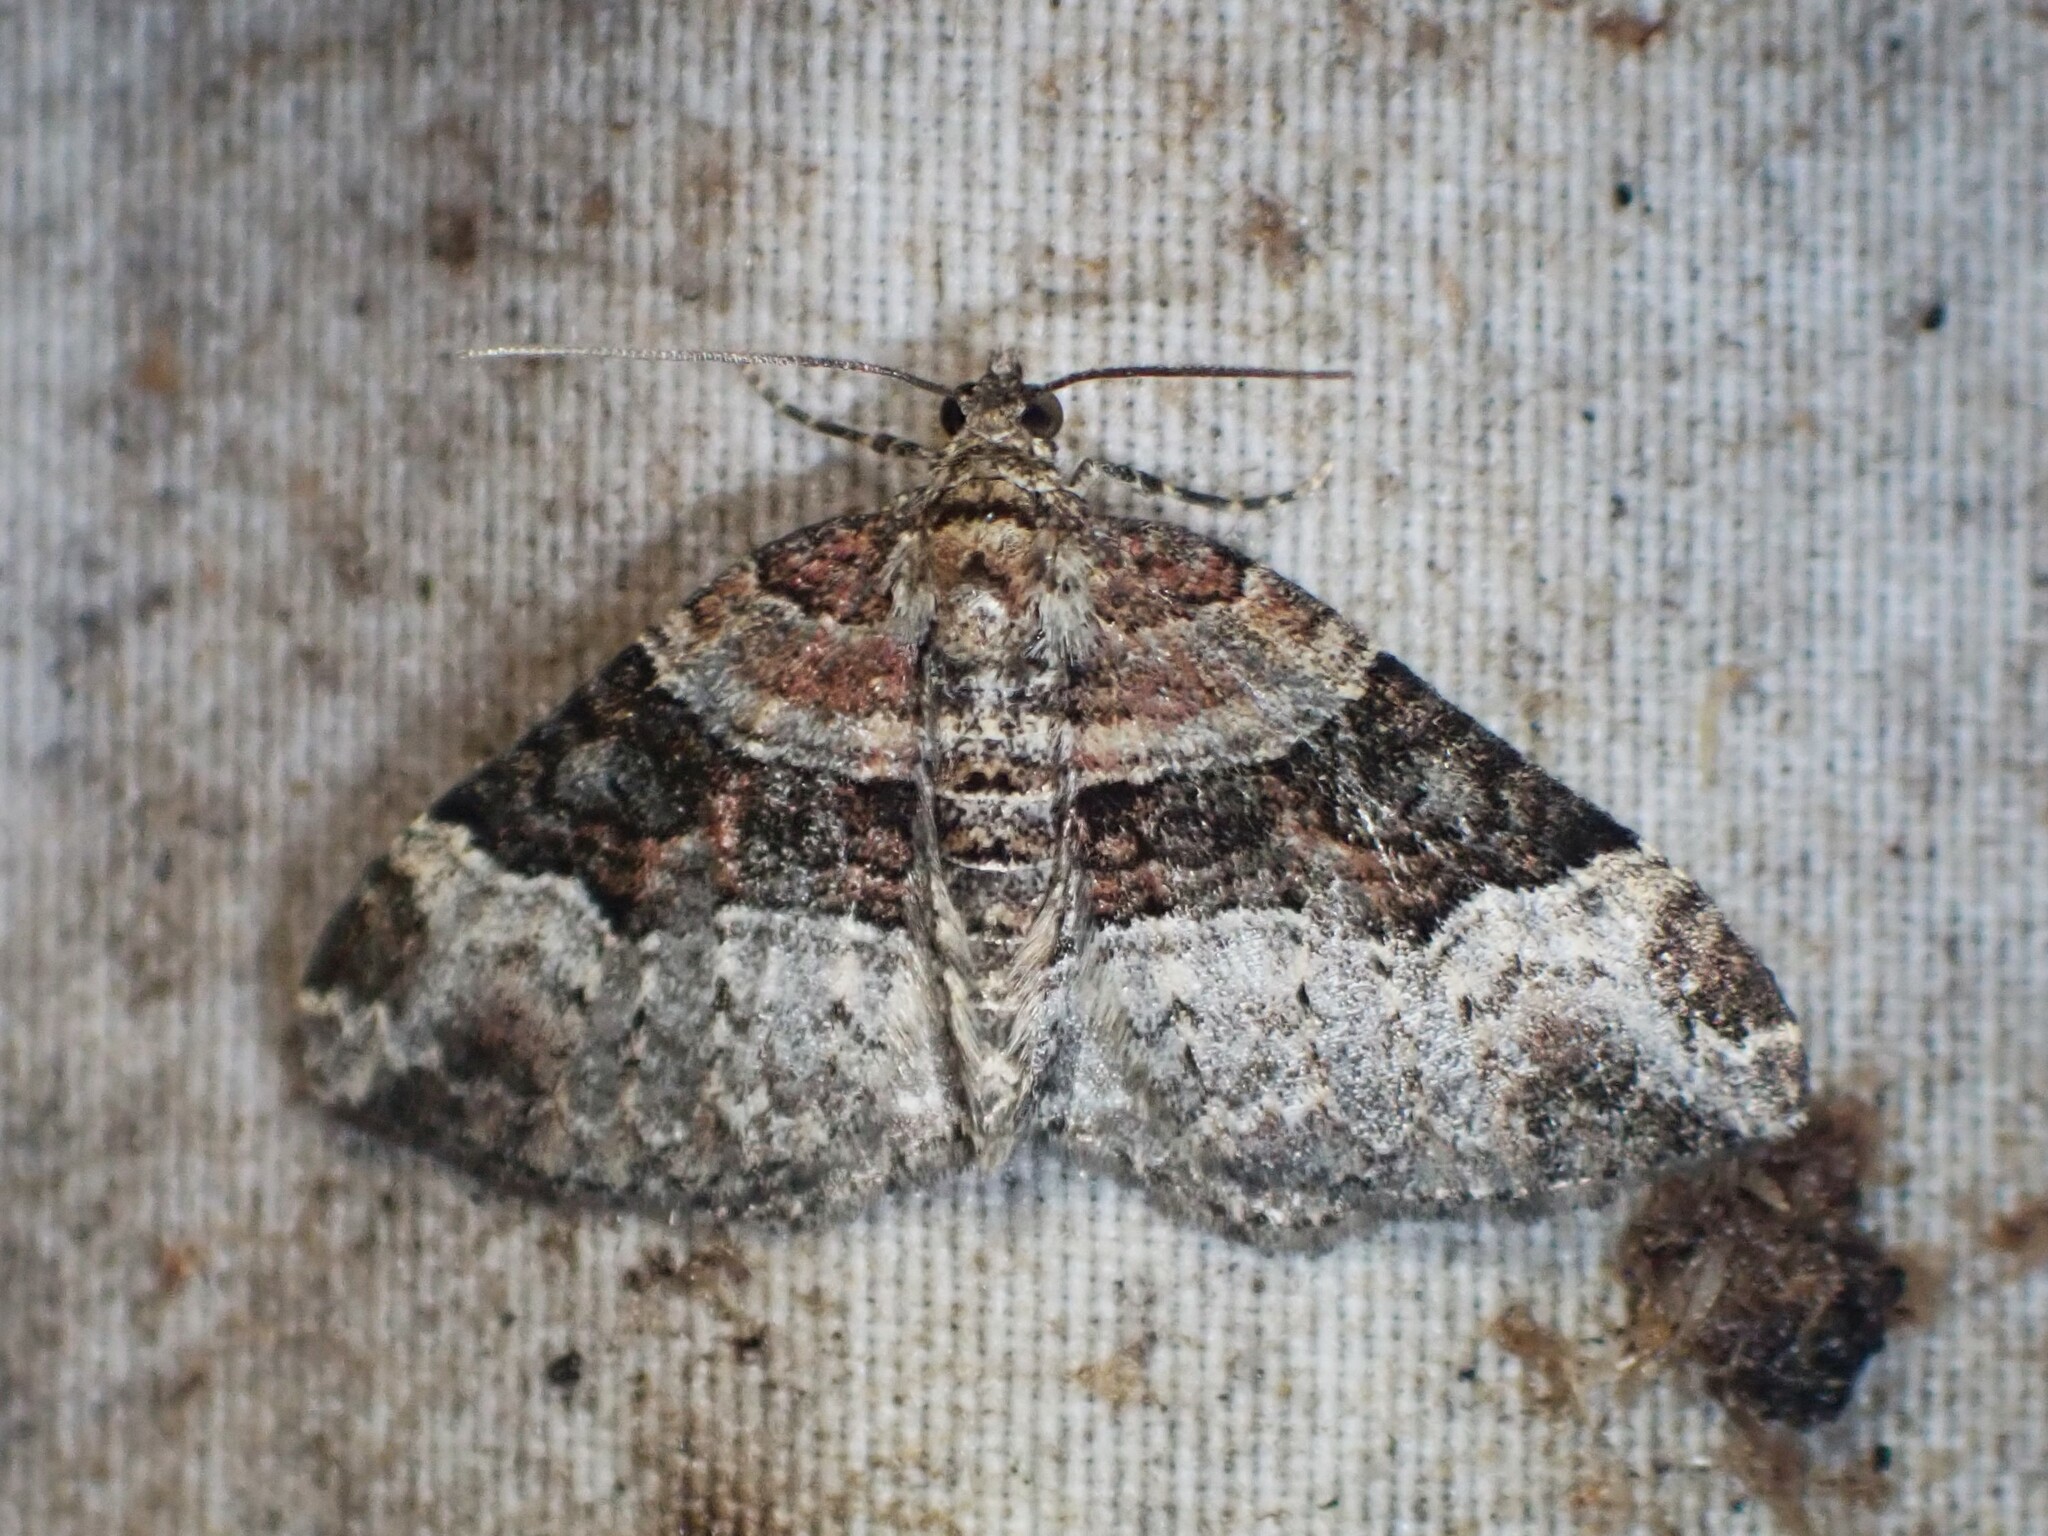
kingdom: Animalia
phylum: Arthropoda
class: Insecta
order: Lepidoptera
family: Geometridae
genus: Xanthorhoe
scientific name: Xanthorhoe lacustrata
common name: Toothed brown carpet
